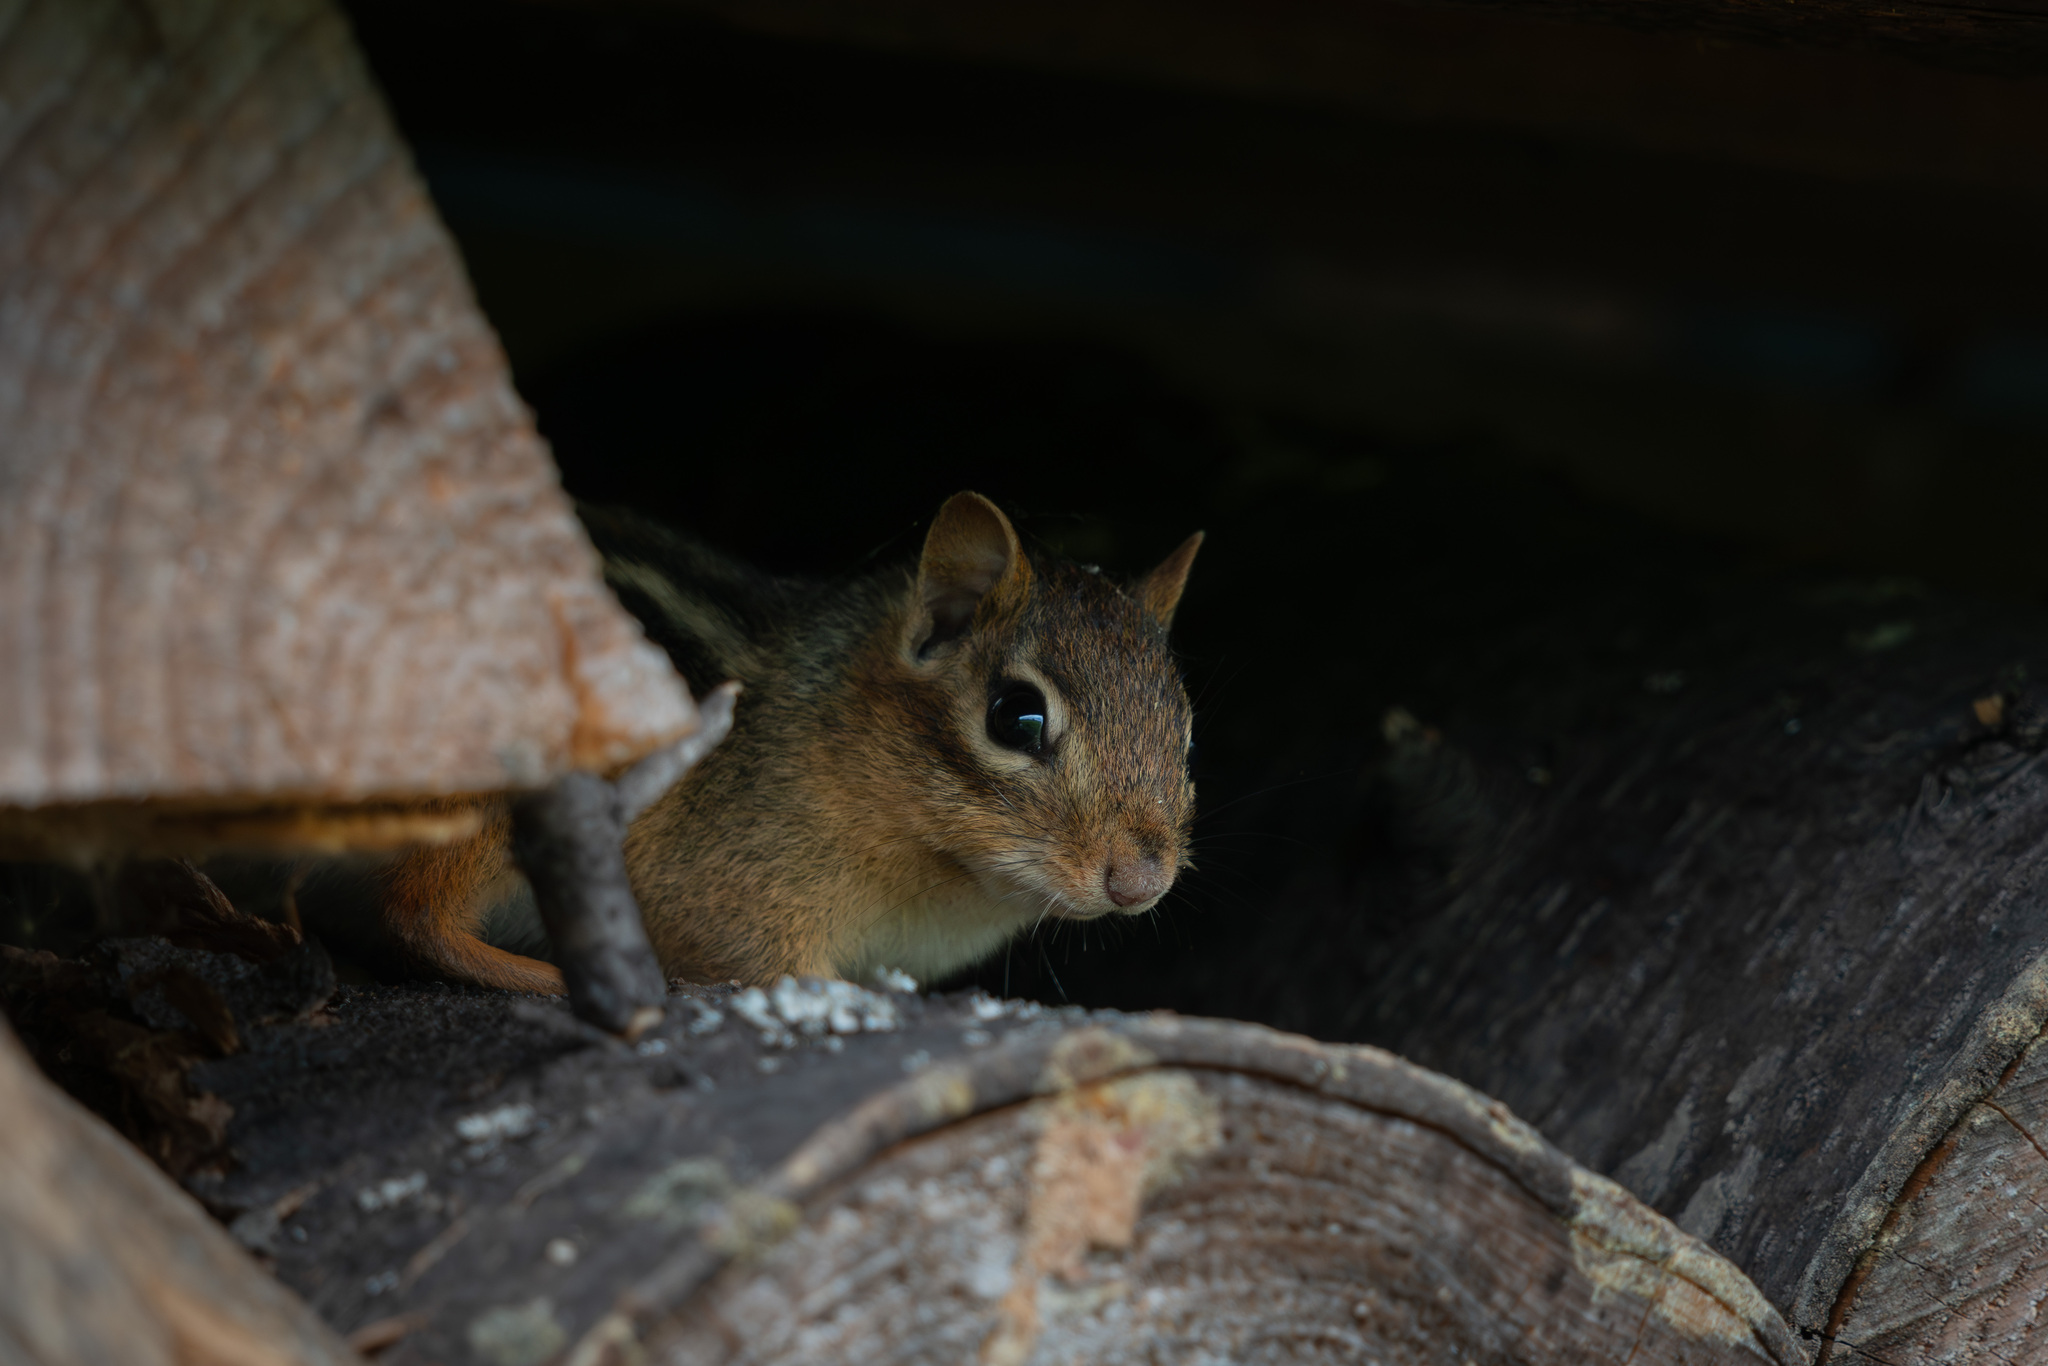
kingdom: Animalia
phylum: Chordata
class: Mammalia
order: Rodentia
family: Sciuridae
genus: Tamias
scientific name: Tamias striatus
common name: Eastern chipmunk
